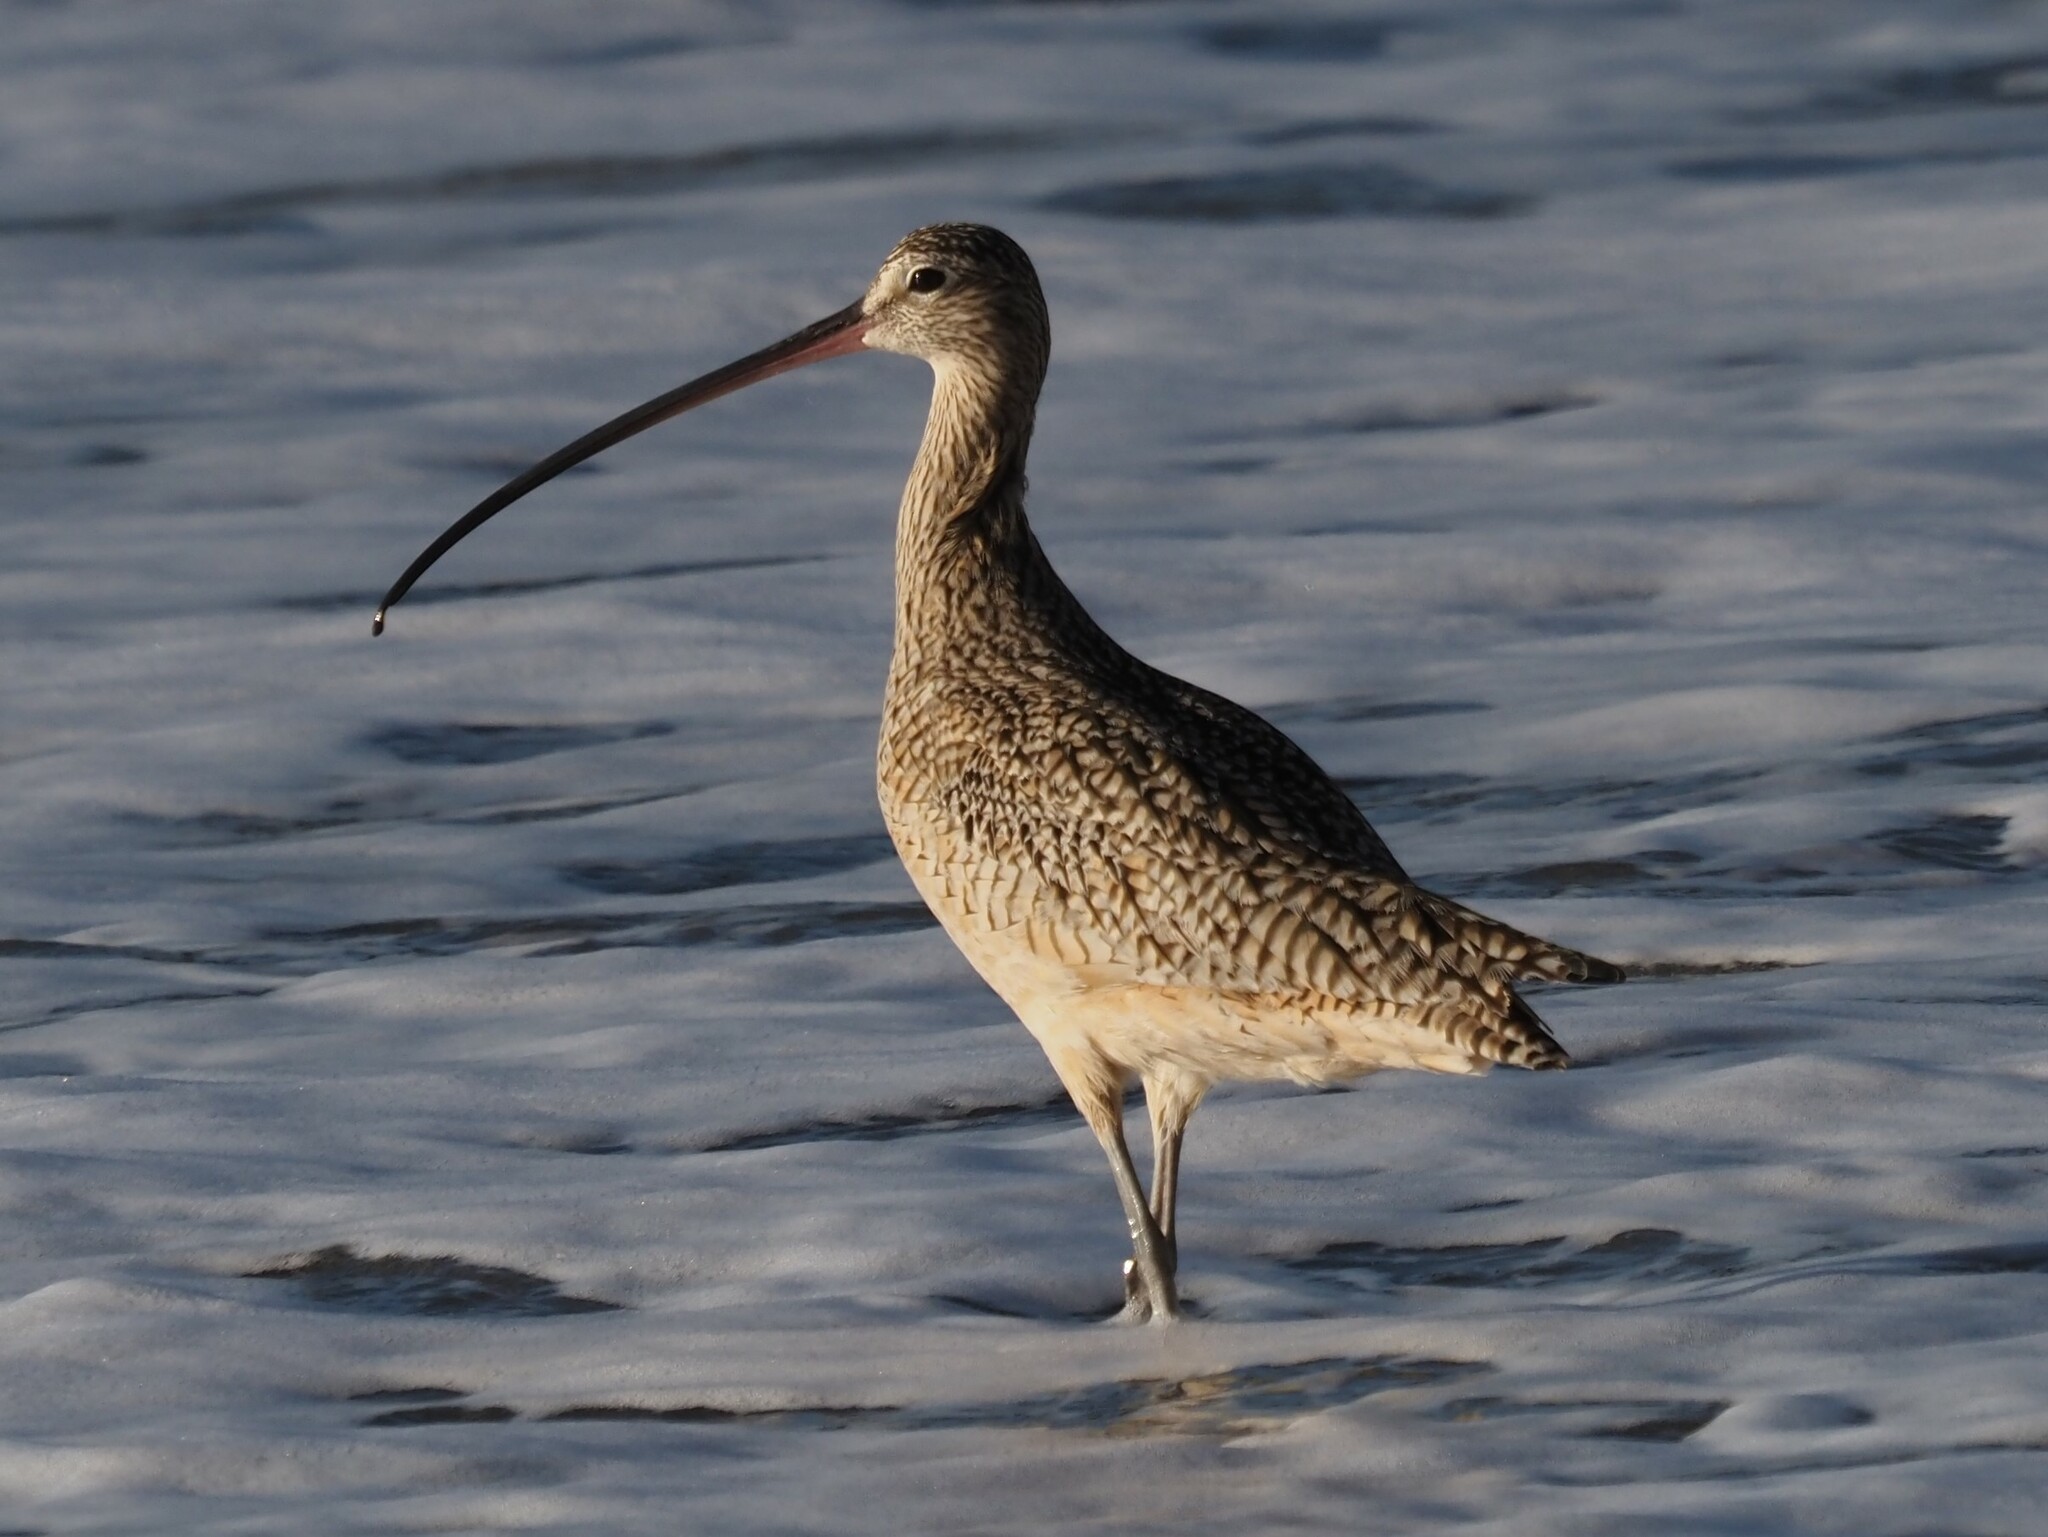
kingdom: Animalia
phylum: Chordata
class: Aves
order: Charadriiformes
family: Scolopacidae
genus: Numenius
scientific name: Numenius americanus
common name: Long-billed curlew
